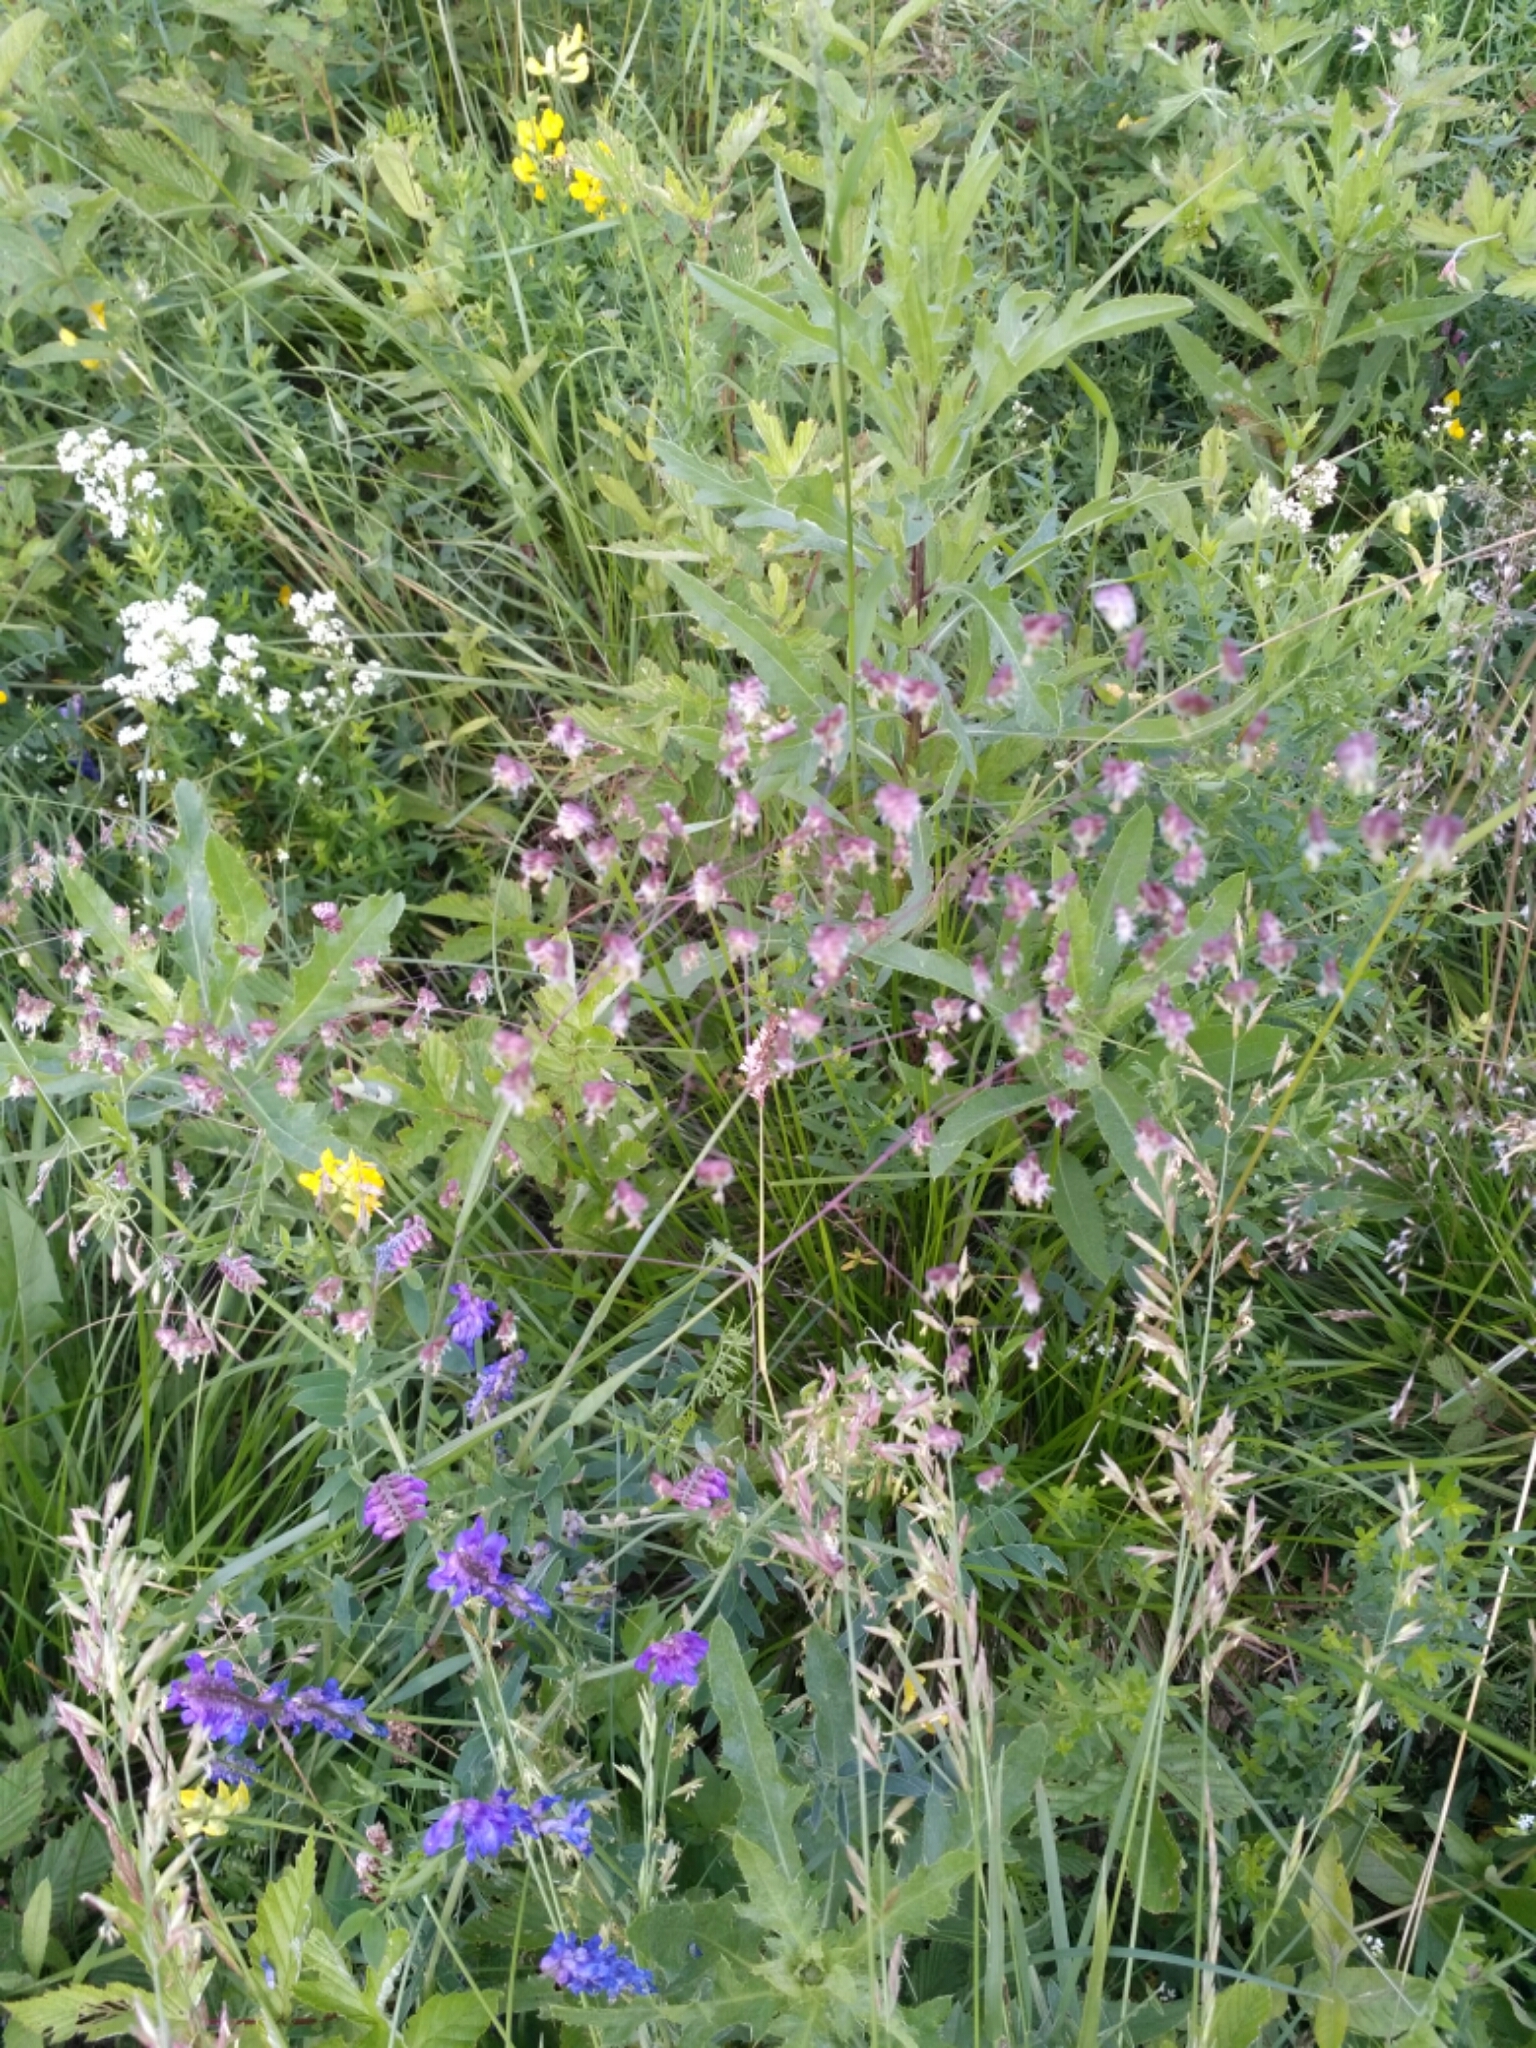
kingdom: Plantae
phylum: Tracheophyta
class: Liliopsida
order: Poales
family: Poaceae
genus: Briza
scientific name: Briza media
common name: Quaking grass
